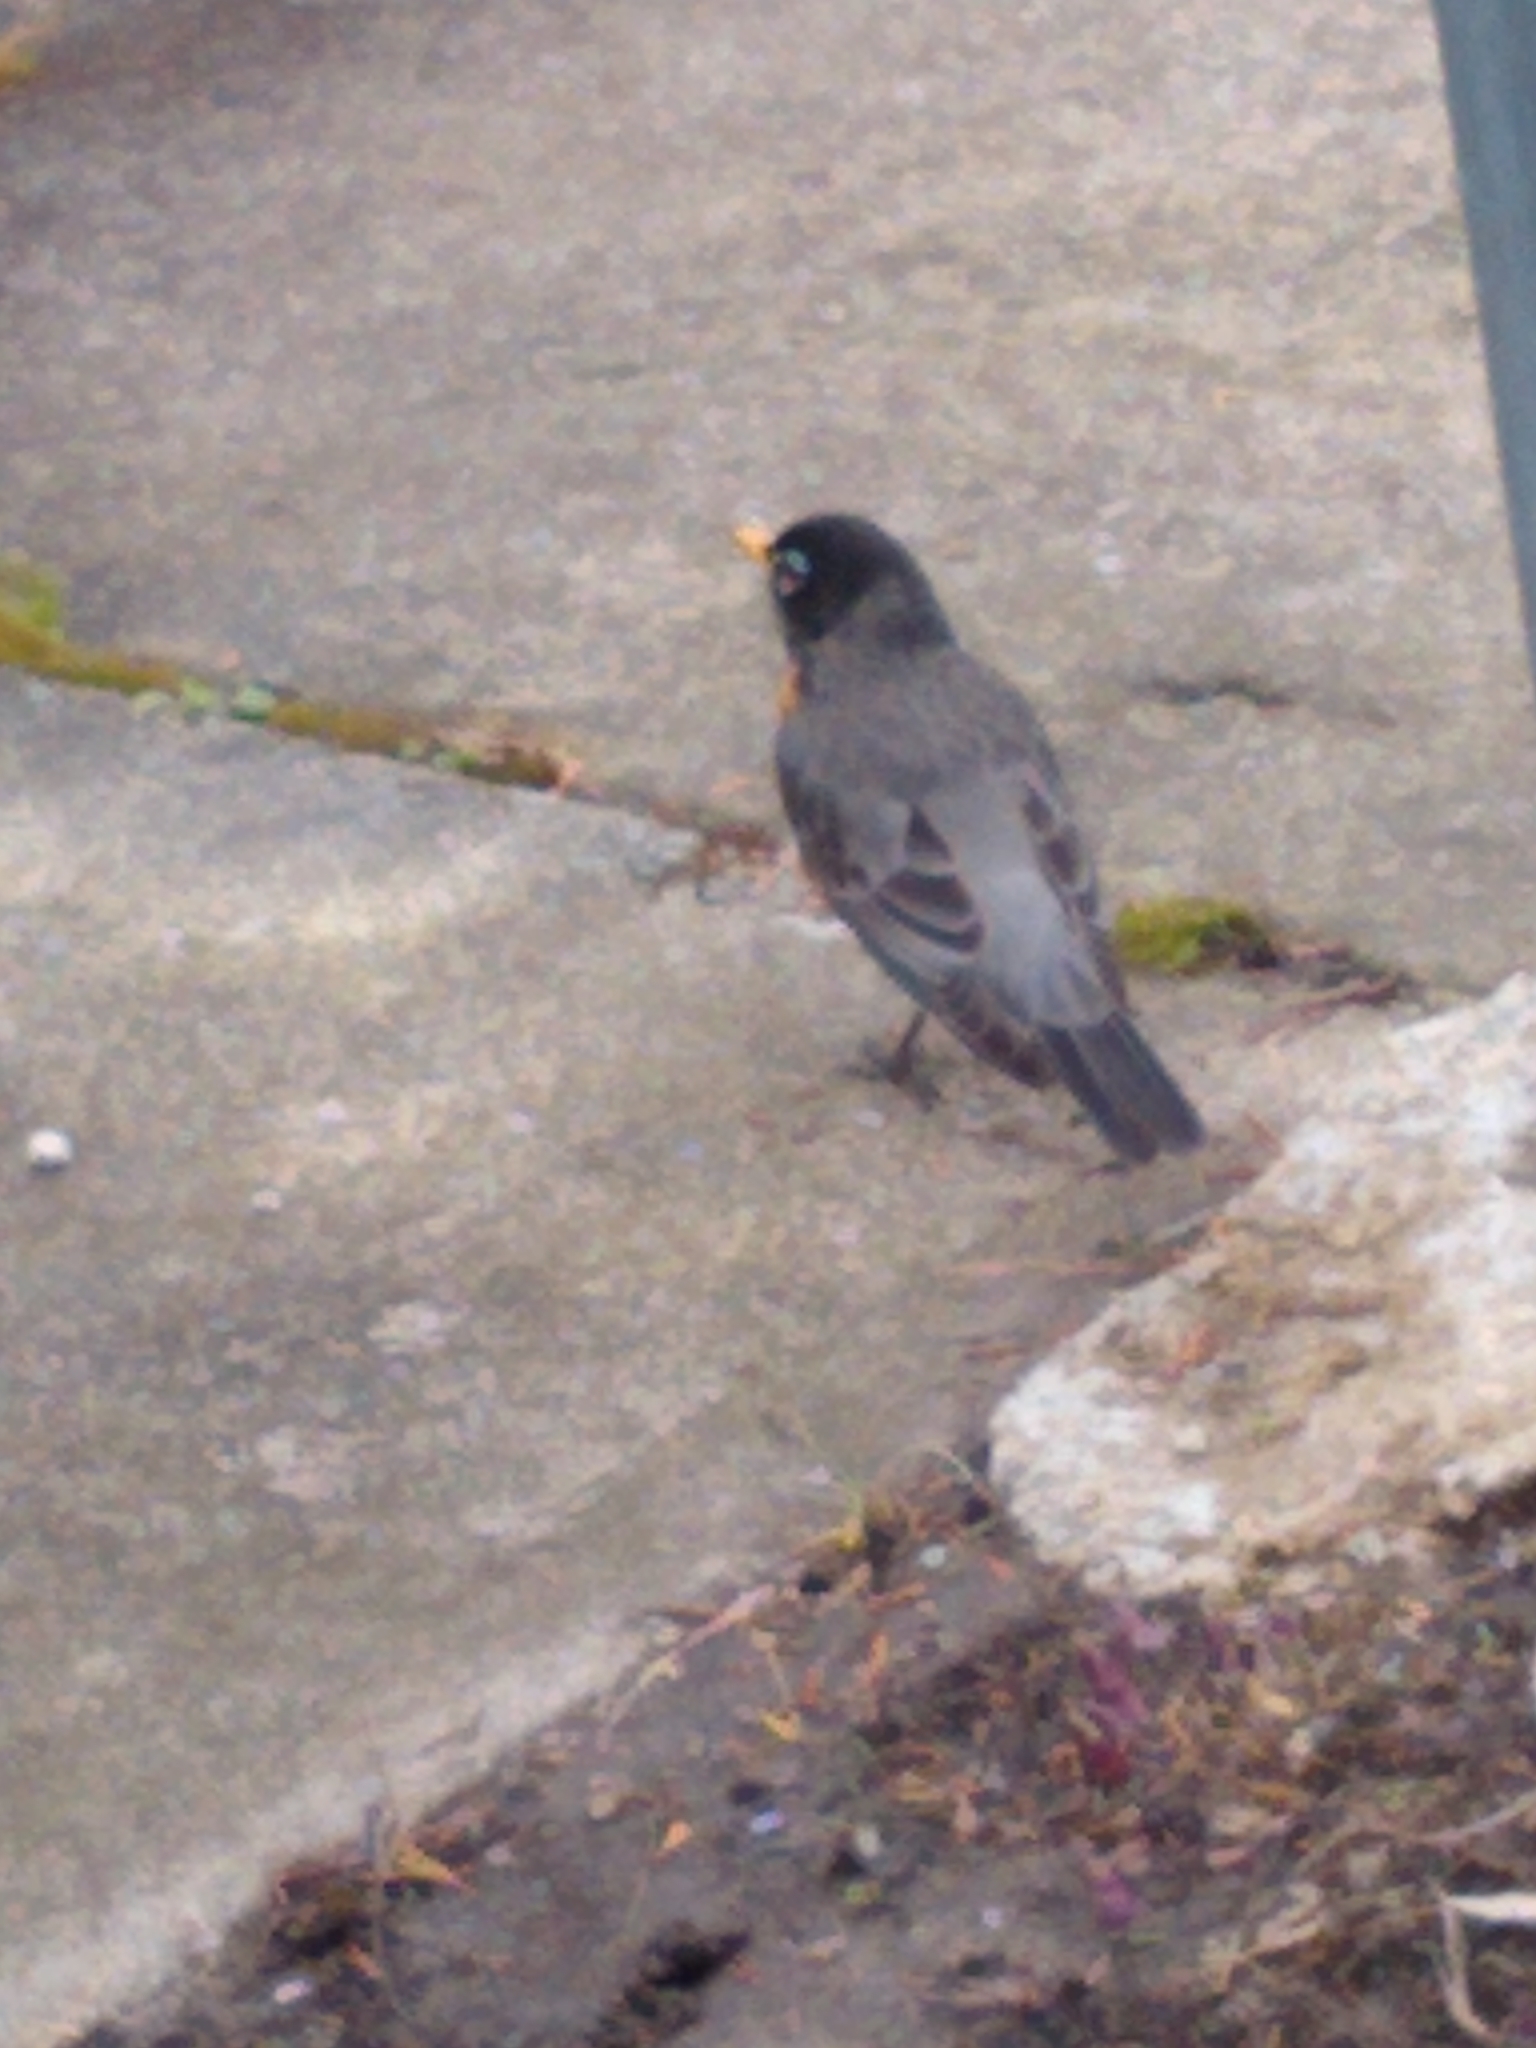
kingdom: Animalia
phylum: Chordata
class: Aves
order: Passeriformes
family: Turdidae
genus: Turdus
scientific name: Turdus migratorius
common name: American robin
